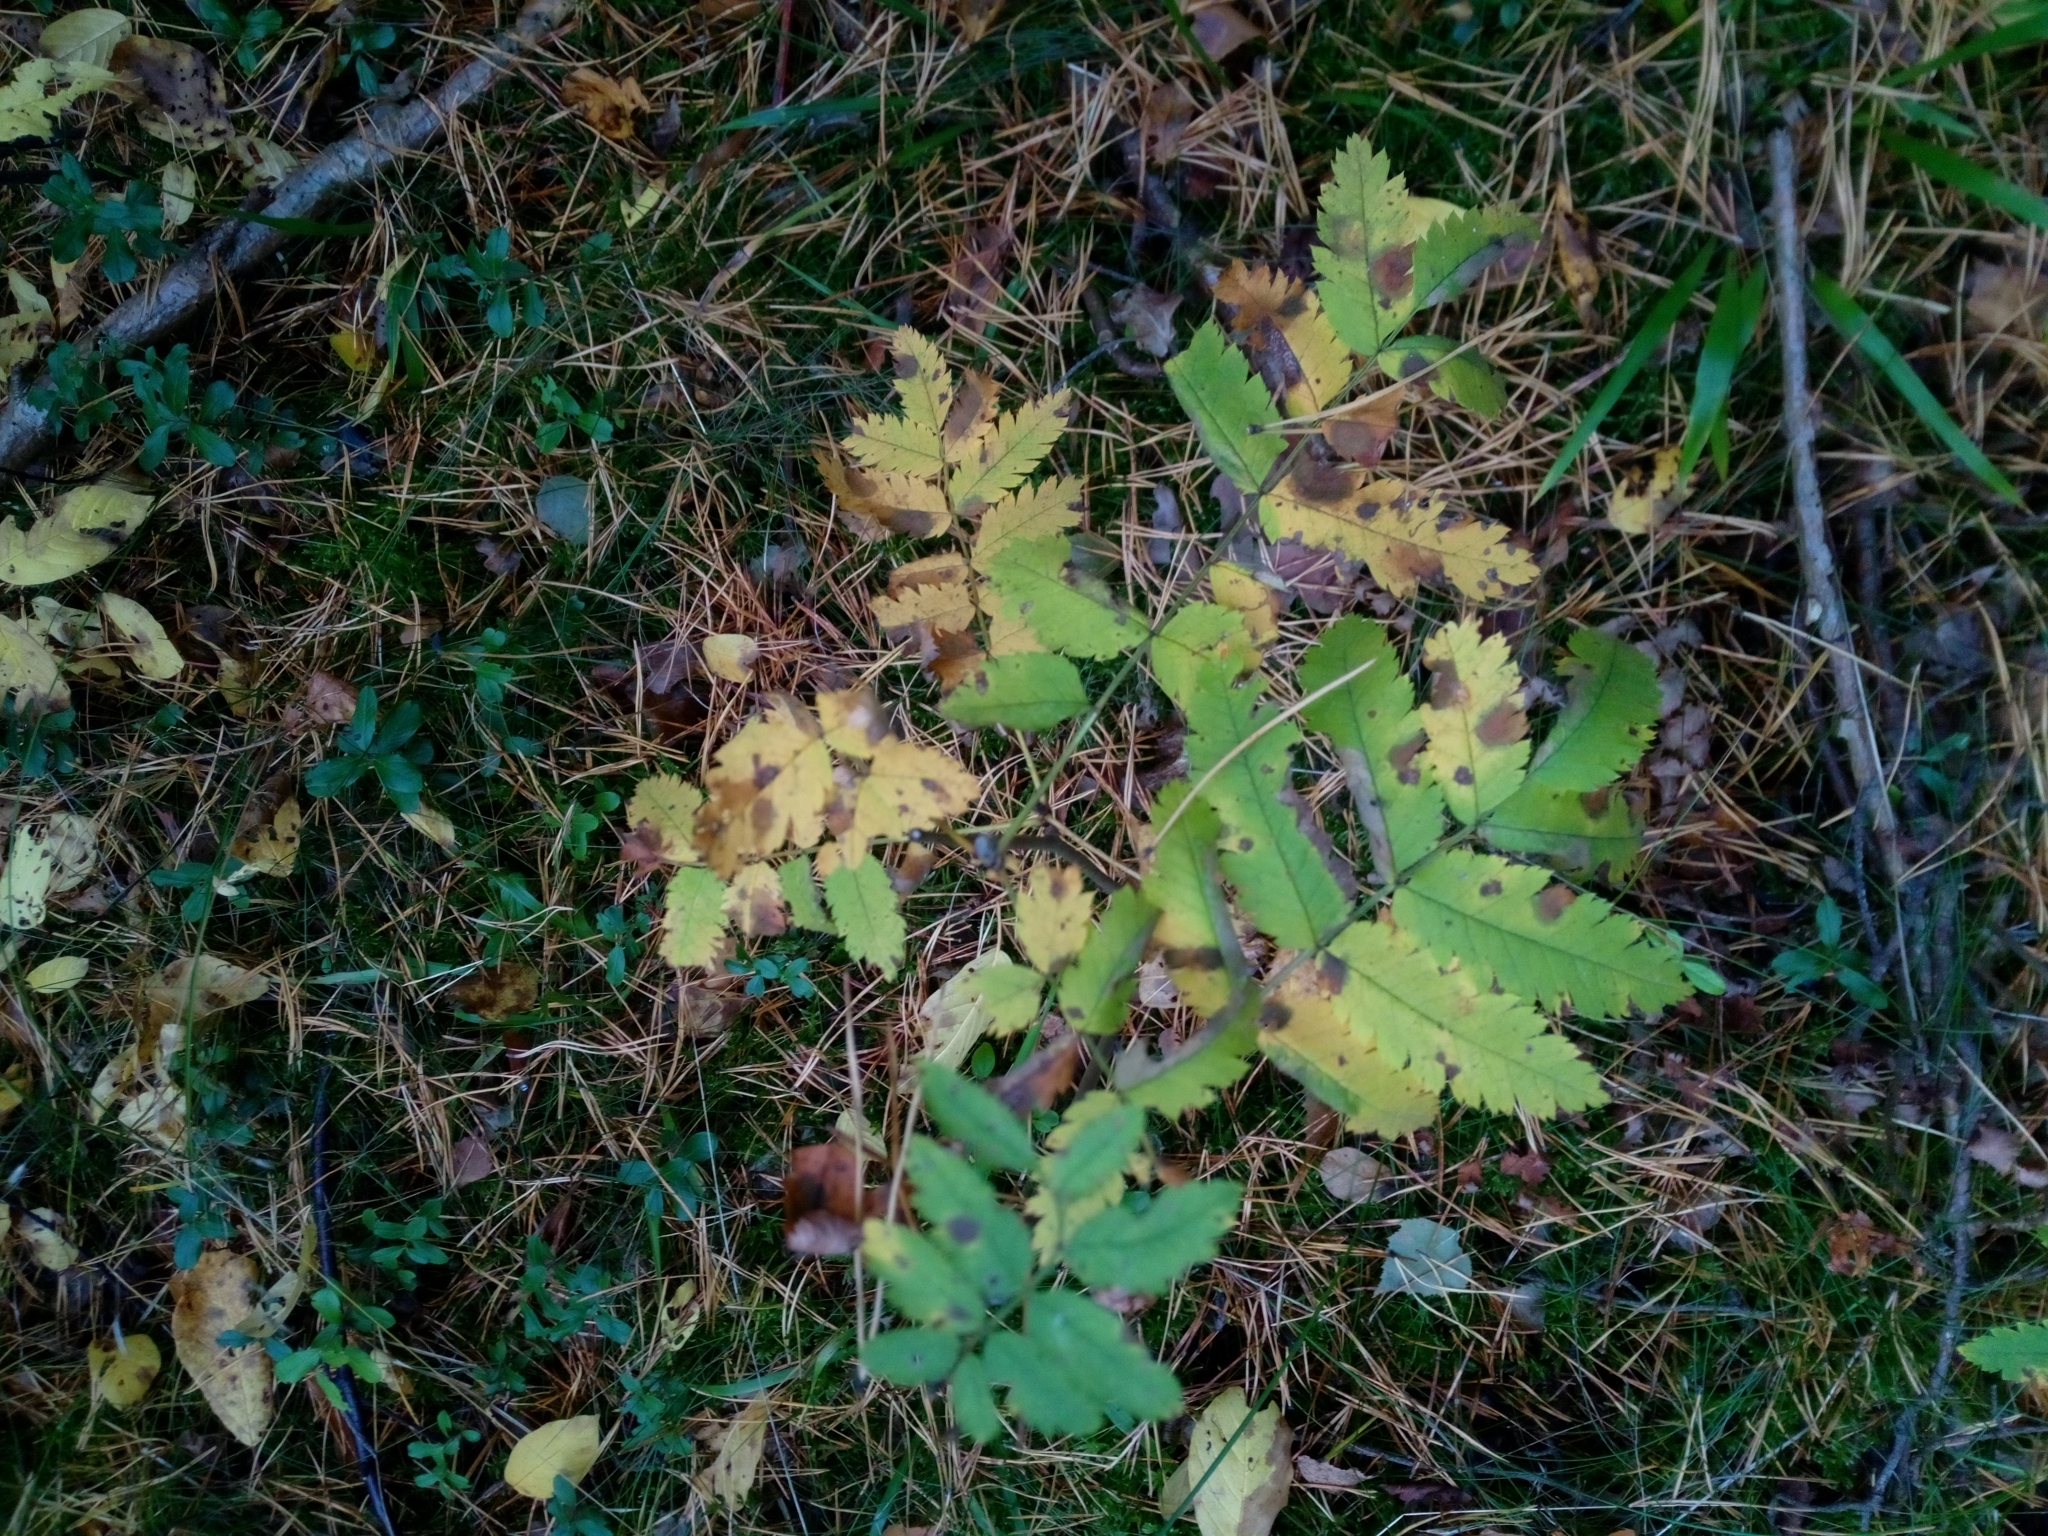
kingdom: Plantae
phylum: Tracheophyta
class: Magnoliopsida
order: Rosales
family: Rosaceae
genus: Sorbus
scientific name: Sorbus aucuparia
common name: Rowan
